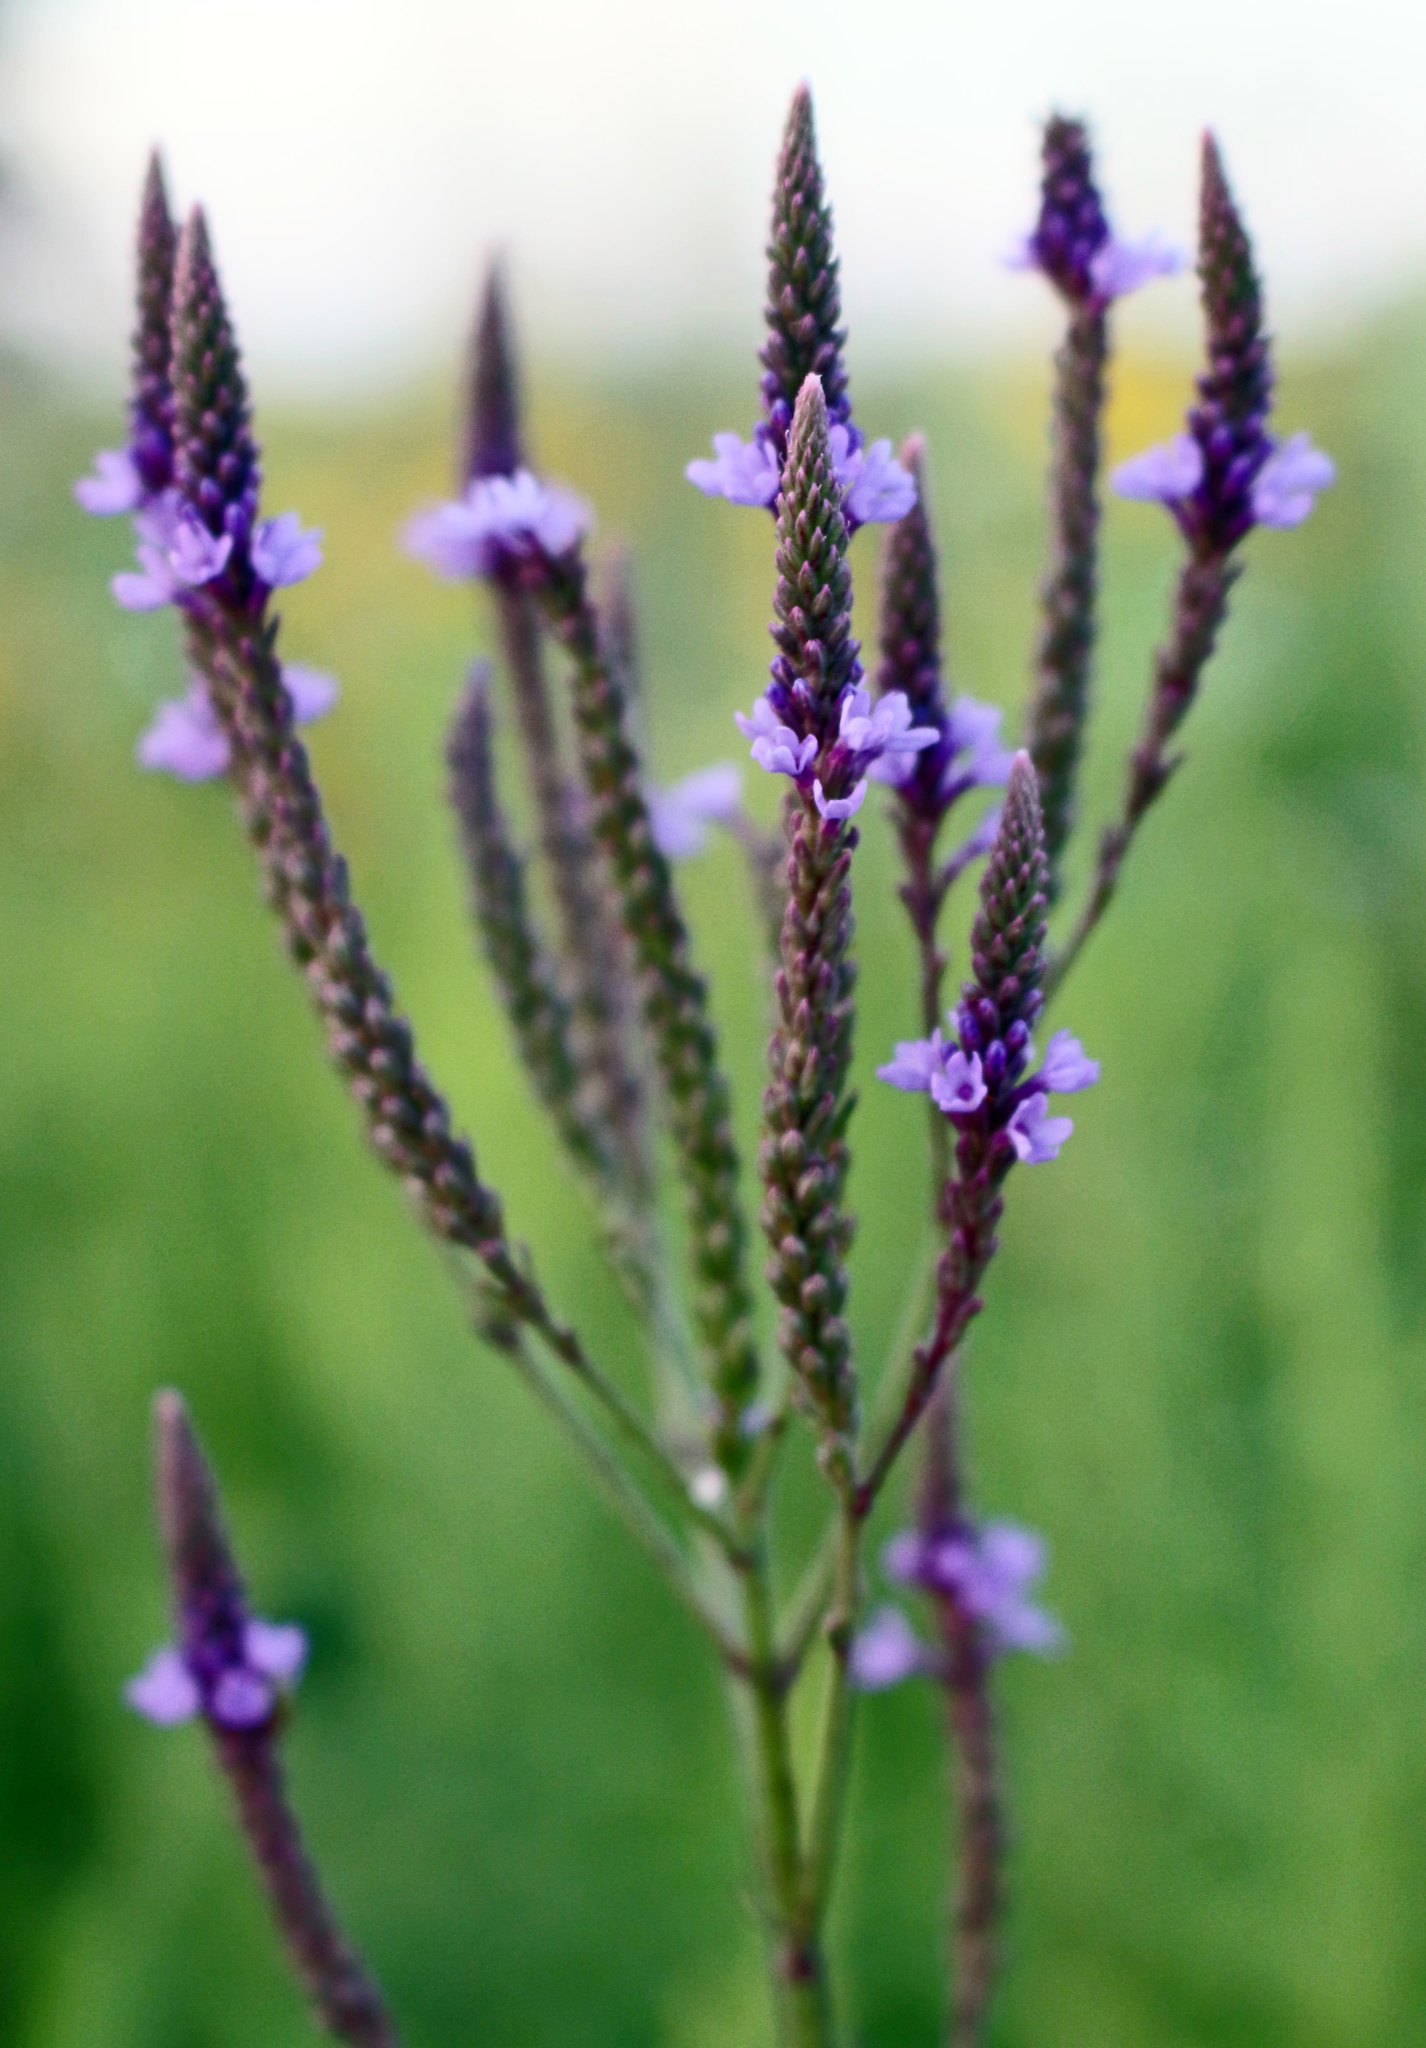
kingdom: Plantae
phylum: Tracheophyta
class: Magnoliopsida
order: Lamiales
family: Verbenaceae
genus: Verbena
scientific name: Verbena hastata
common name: American blue vervain
